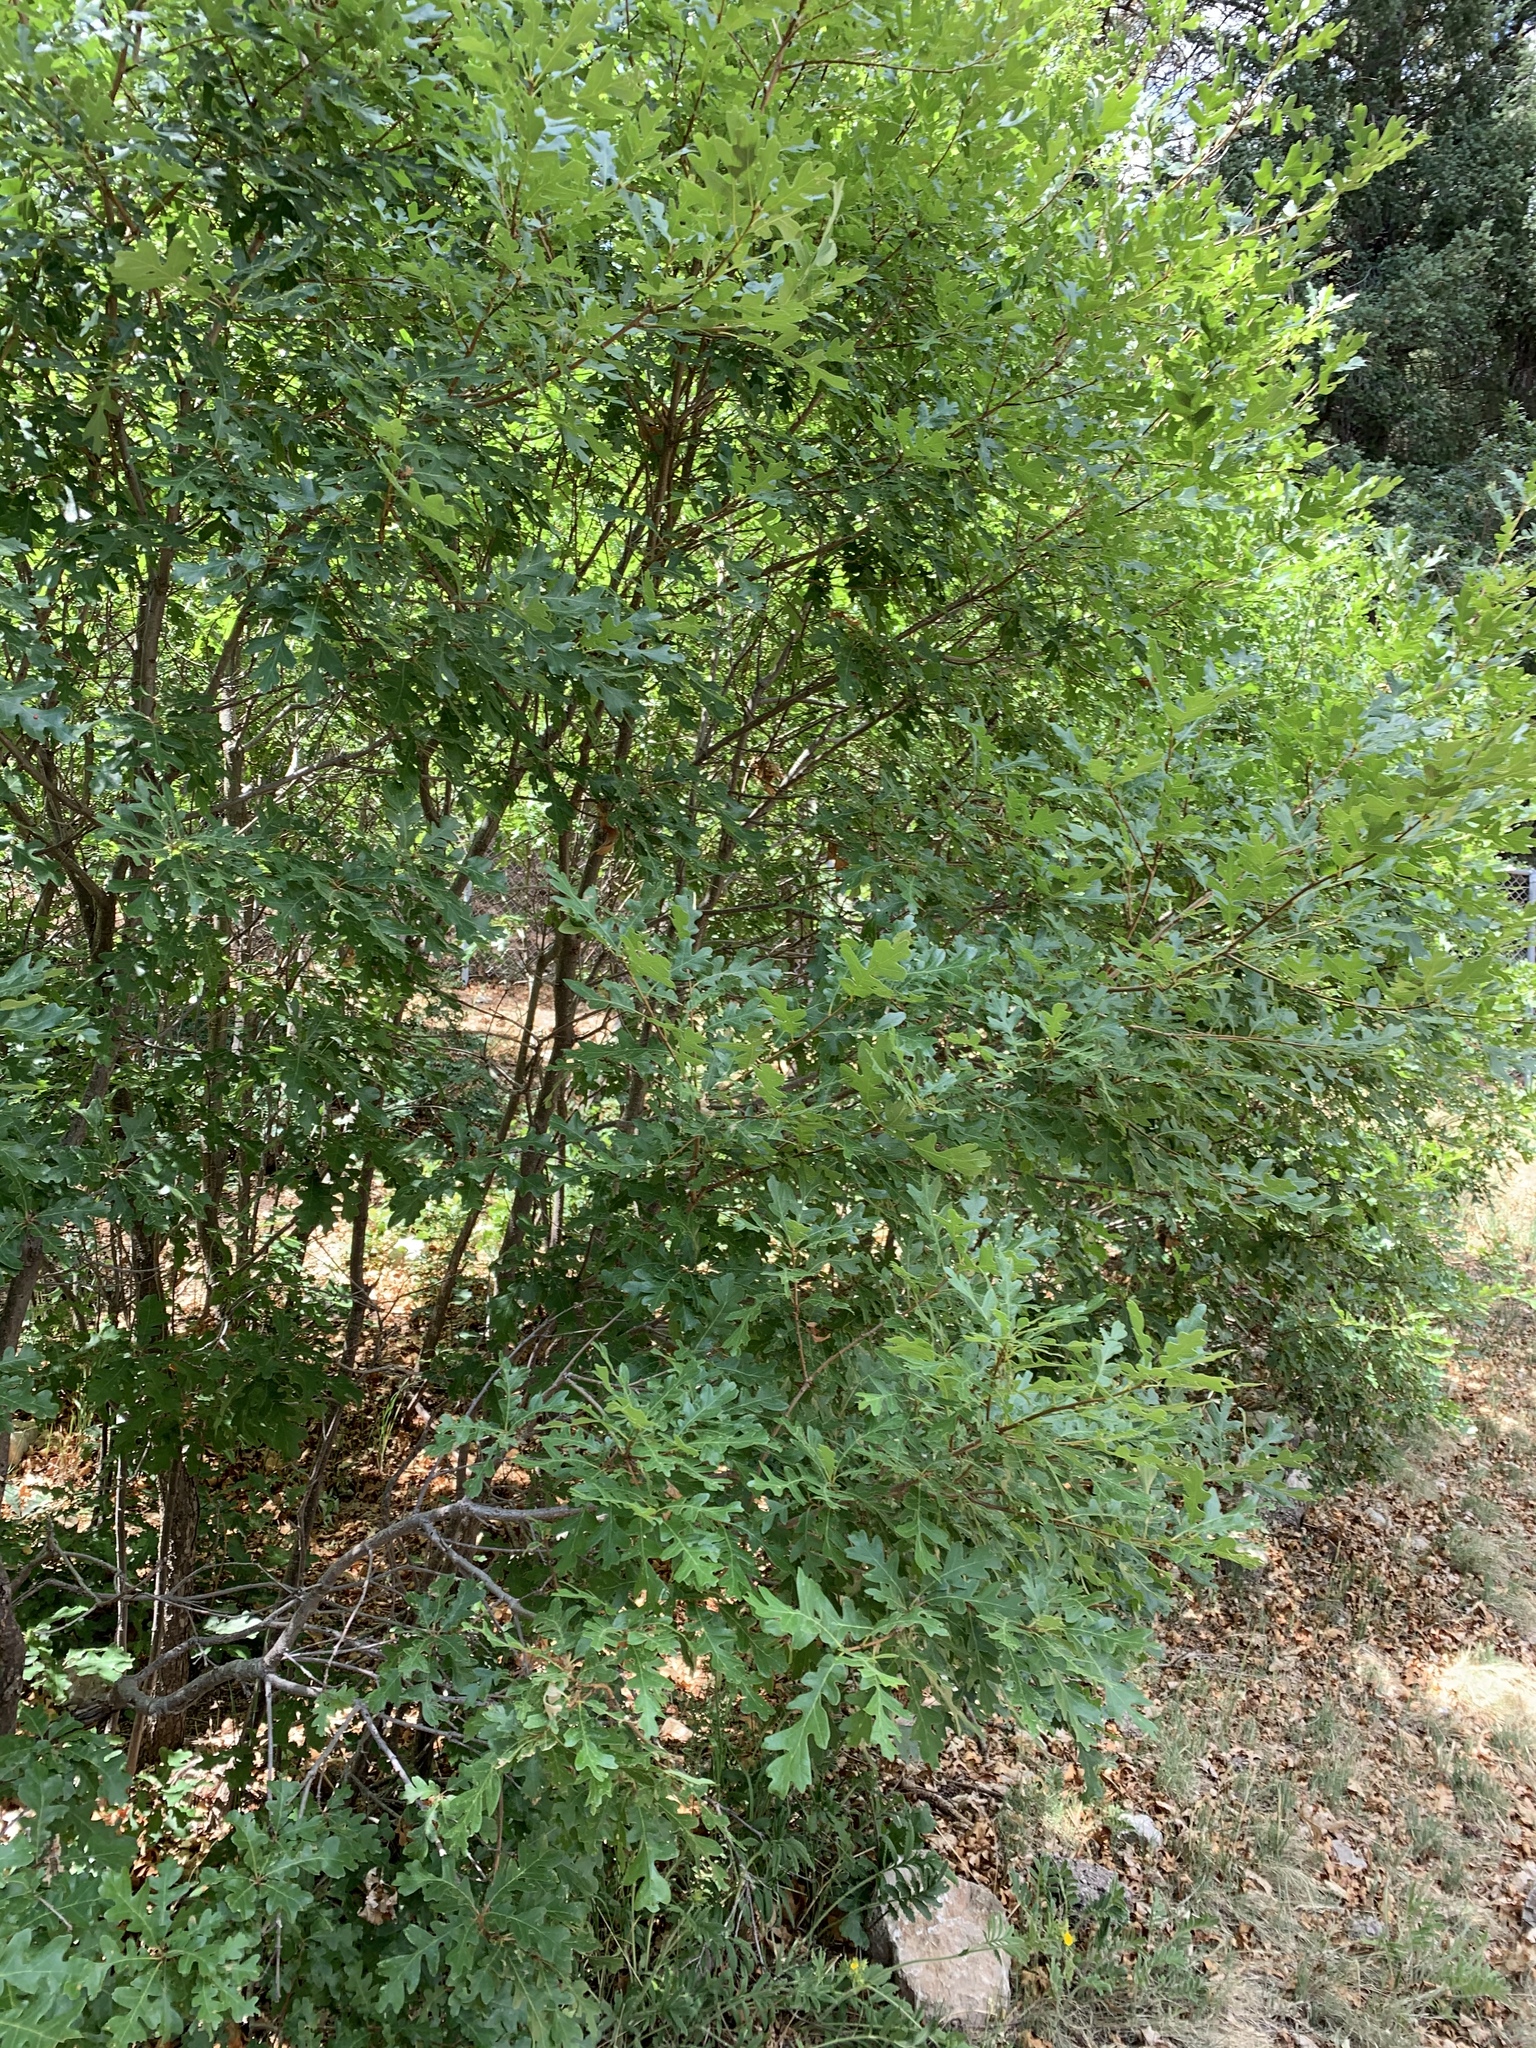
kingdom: Plantae
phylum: Tracheophyta
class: Magnoliopsida
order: Fagales
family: Fagaceae
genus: Quercus
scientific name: Quercus gambelii
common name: Gambel oak
